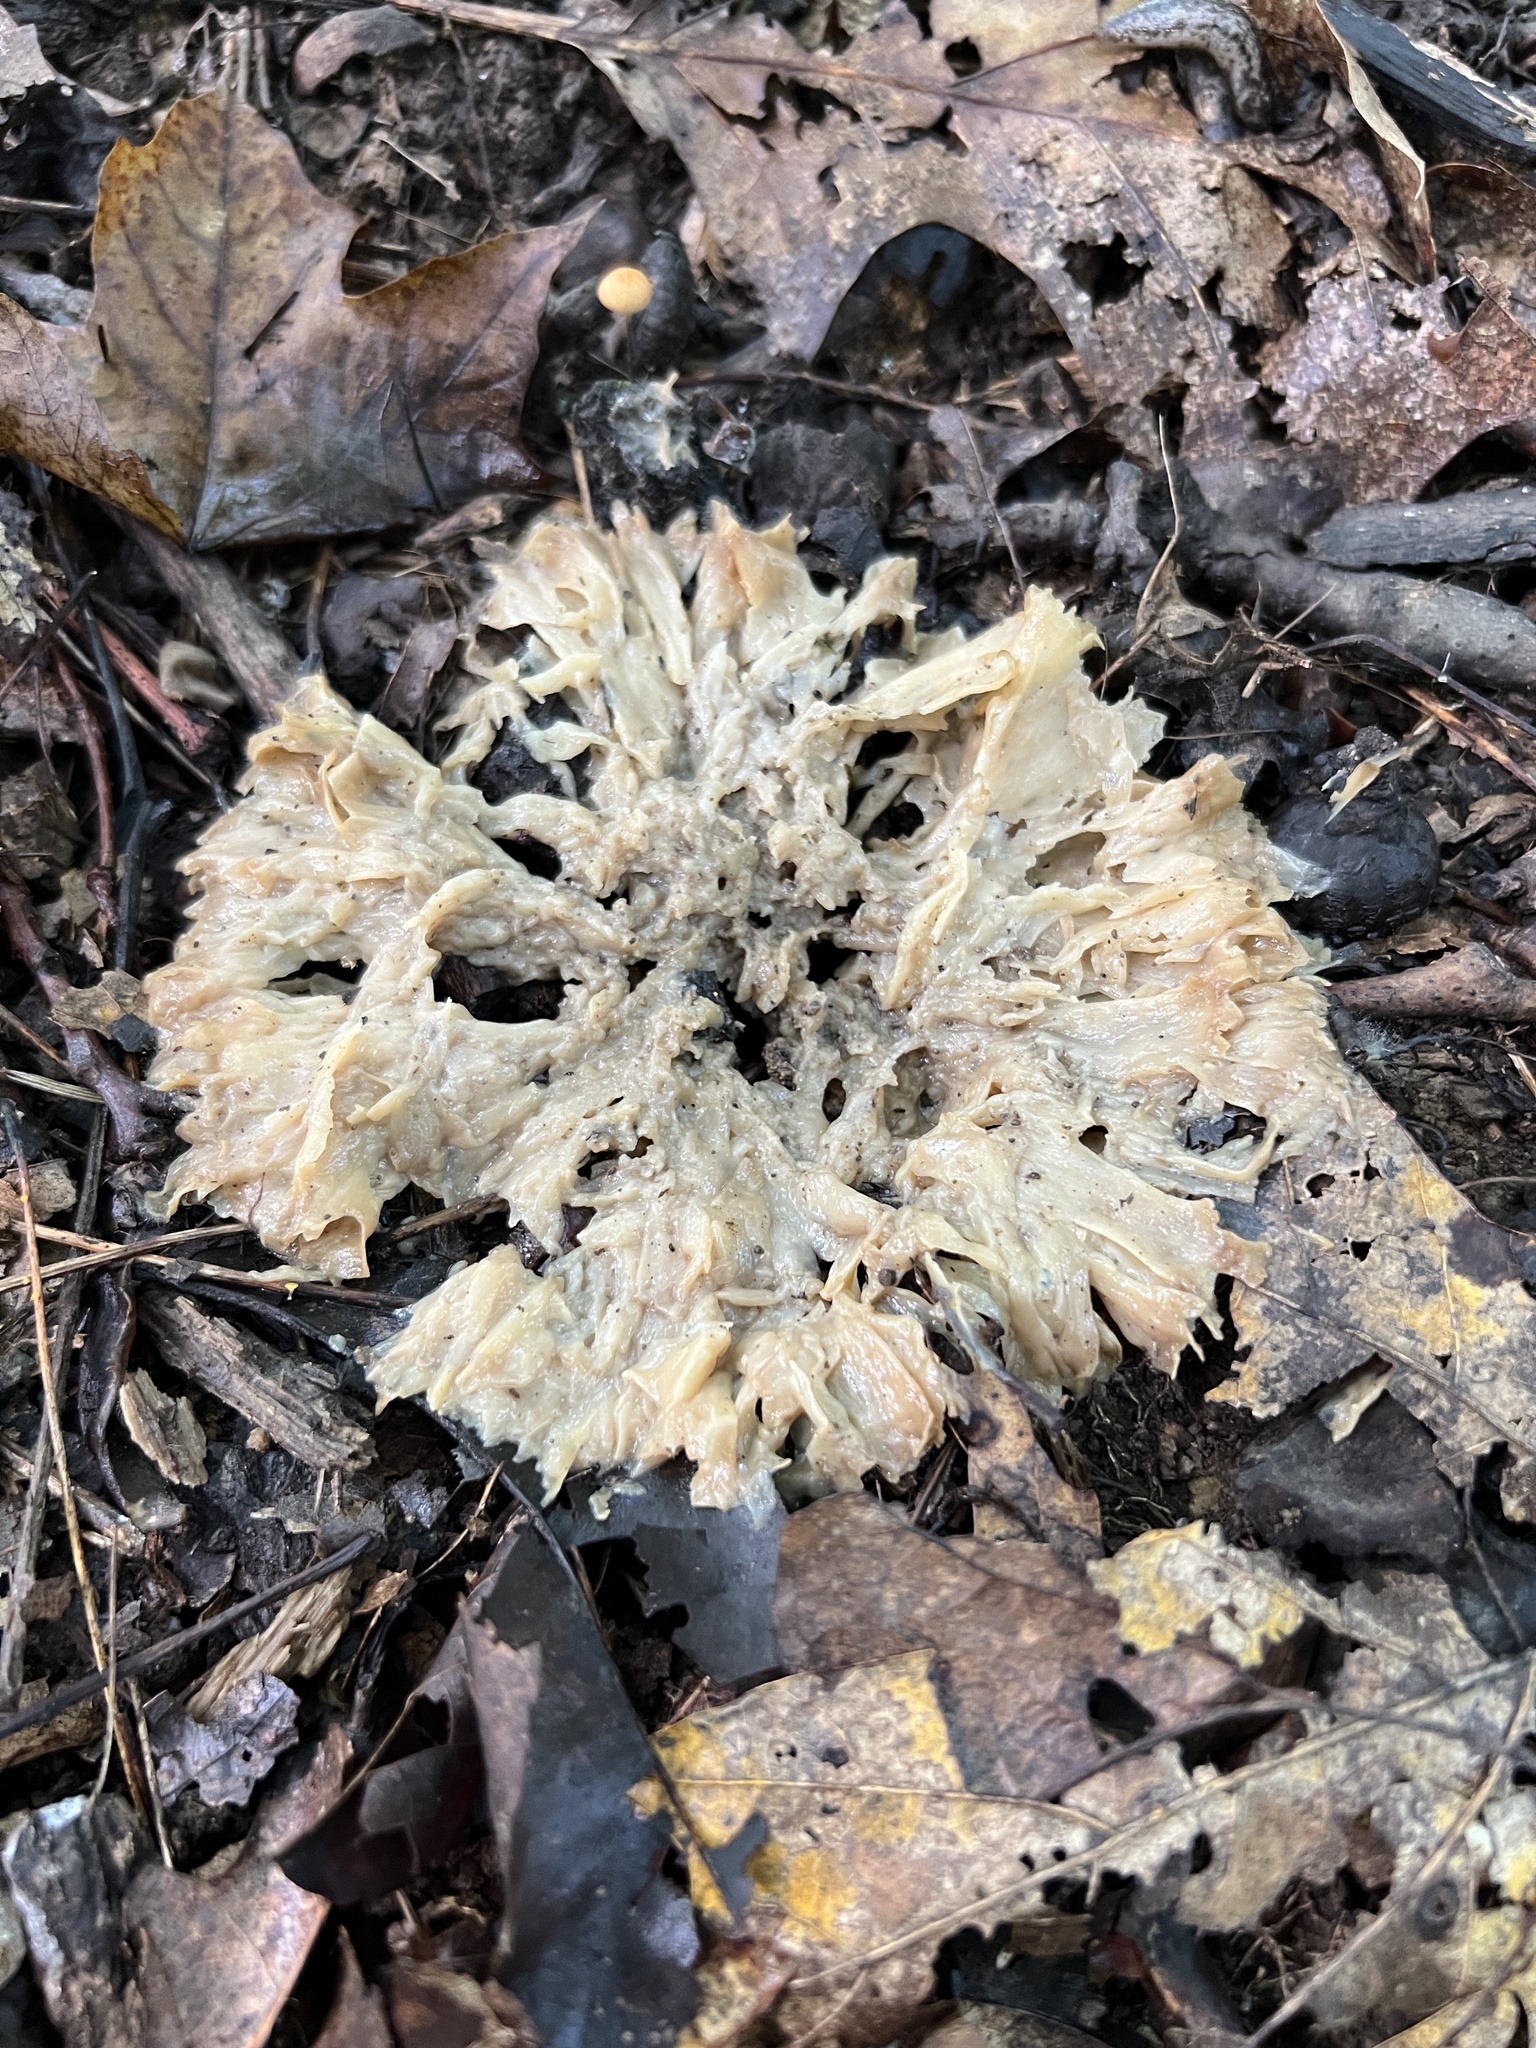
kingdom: Fungi
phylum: Basidiomycota
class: Agaricomycetes
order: Polyporales
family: Sparassidaceae
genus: Sparassis
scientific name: Sparassis spathulata
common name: Eastern cauliflower mushroom
